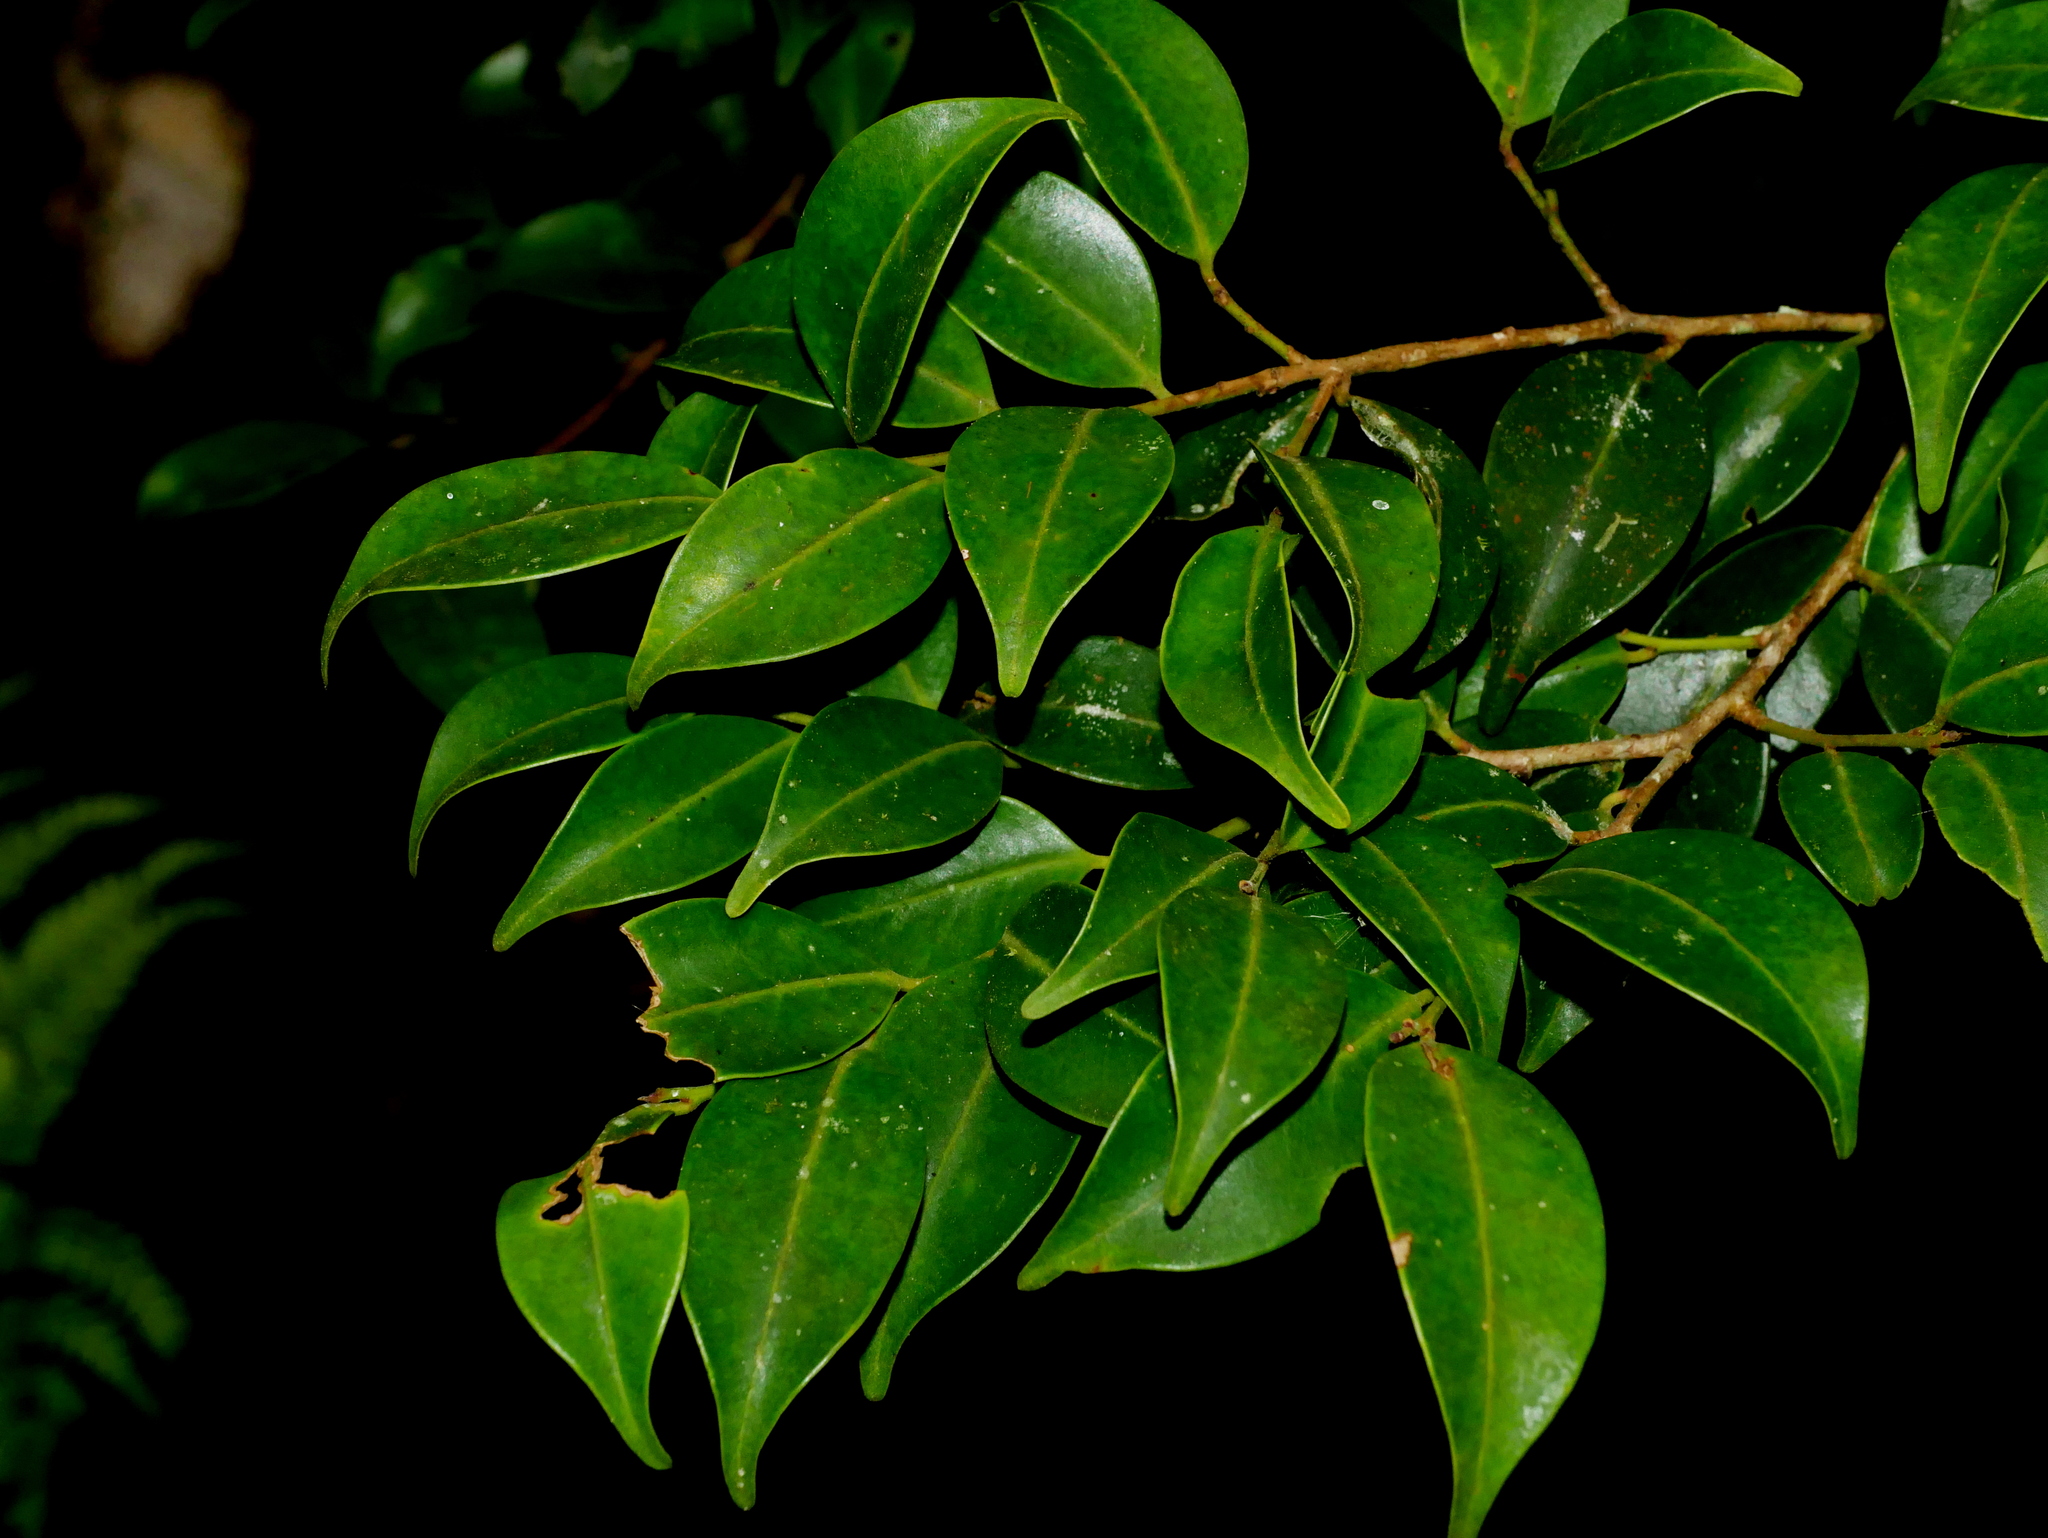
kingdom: Plantae
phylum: Tracheophyta
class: Magnoliopsida
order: Aquifoliales
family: Aquifoliaceae
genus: Ilex
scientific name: Ilex hayataiana
